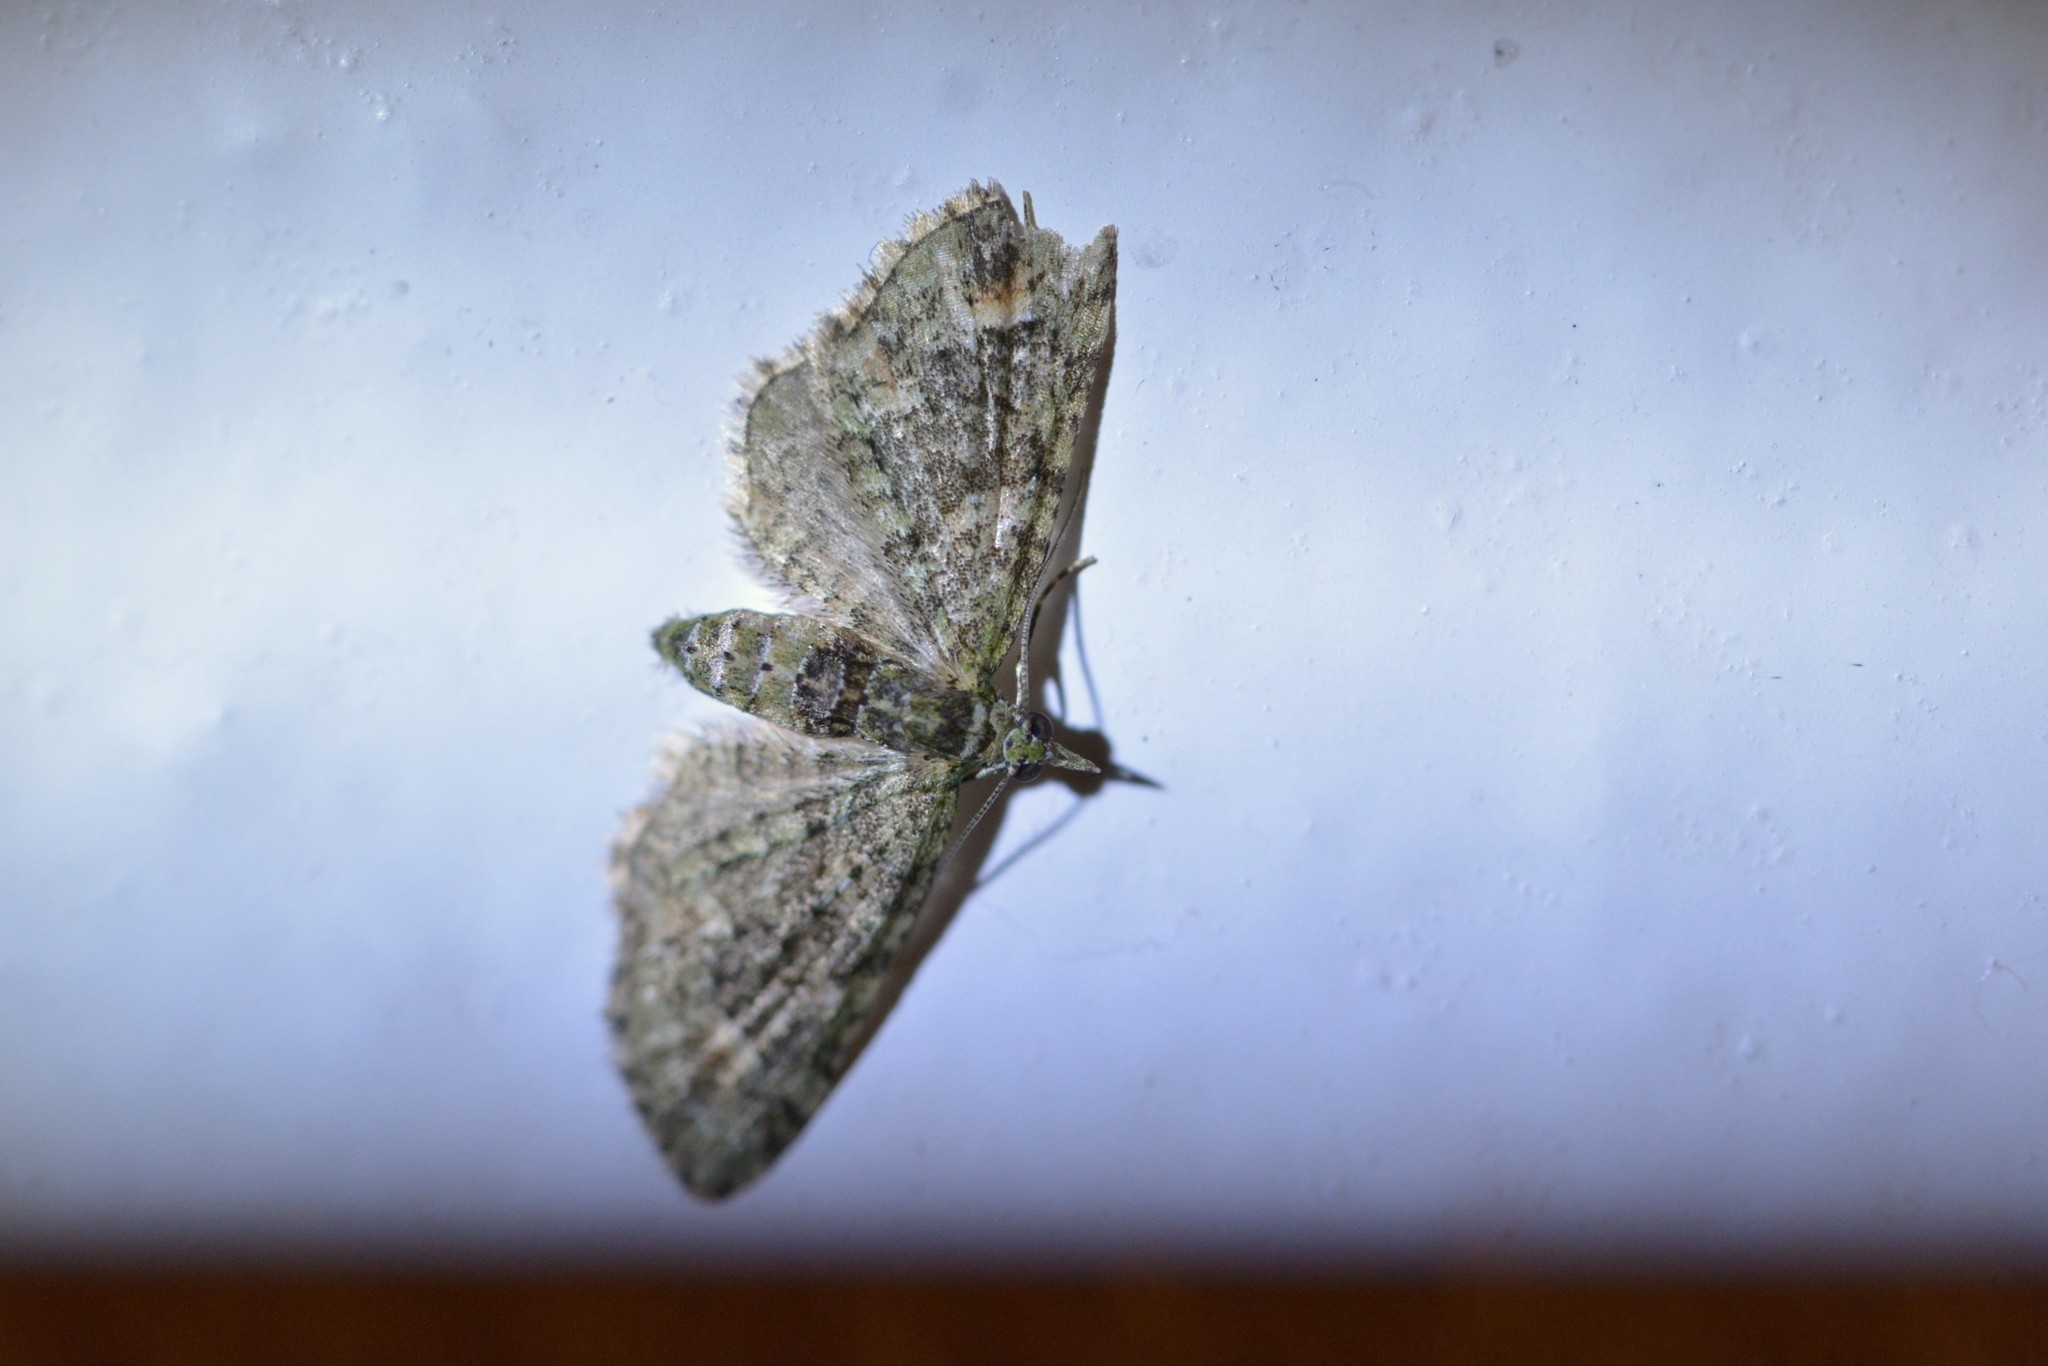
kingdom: Animalia
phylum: Arthropoda
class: Insecta
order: Lepidoptera
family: Geometridae
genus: Idaea
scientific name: Idaea mutanda
